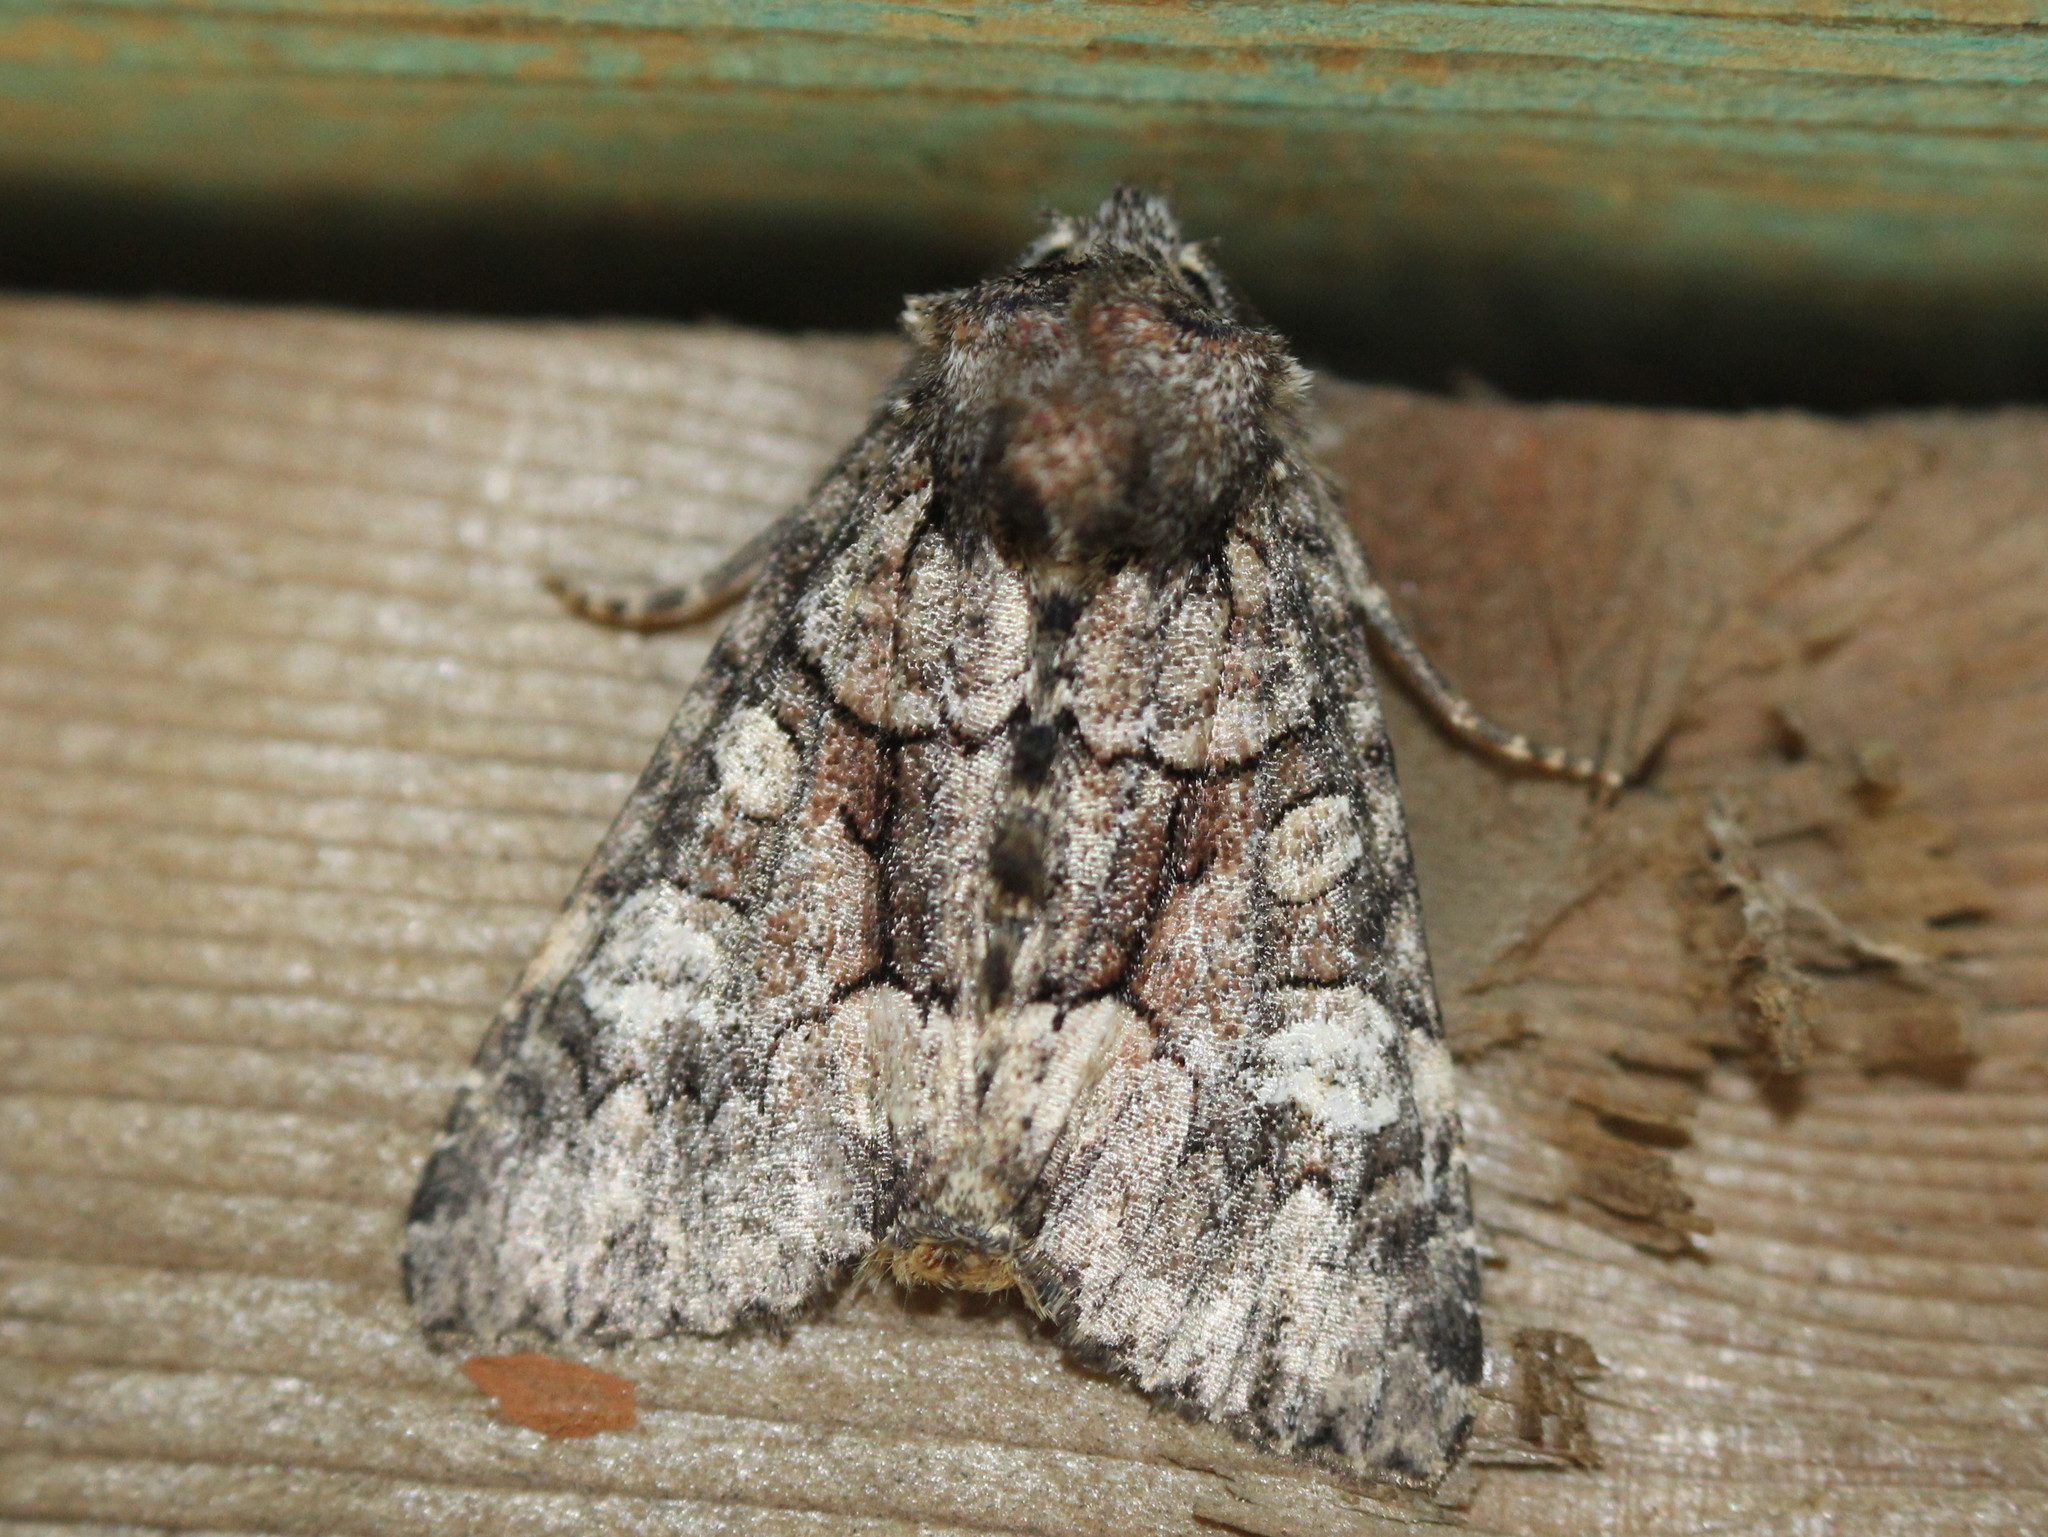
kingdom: Animalia
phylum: Arthropoda
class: Insecta
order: Lepidoptera
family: Noctuidae
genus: Fishia
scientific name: Fishia illocata
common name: Wandering brocade moth
